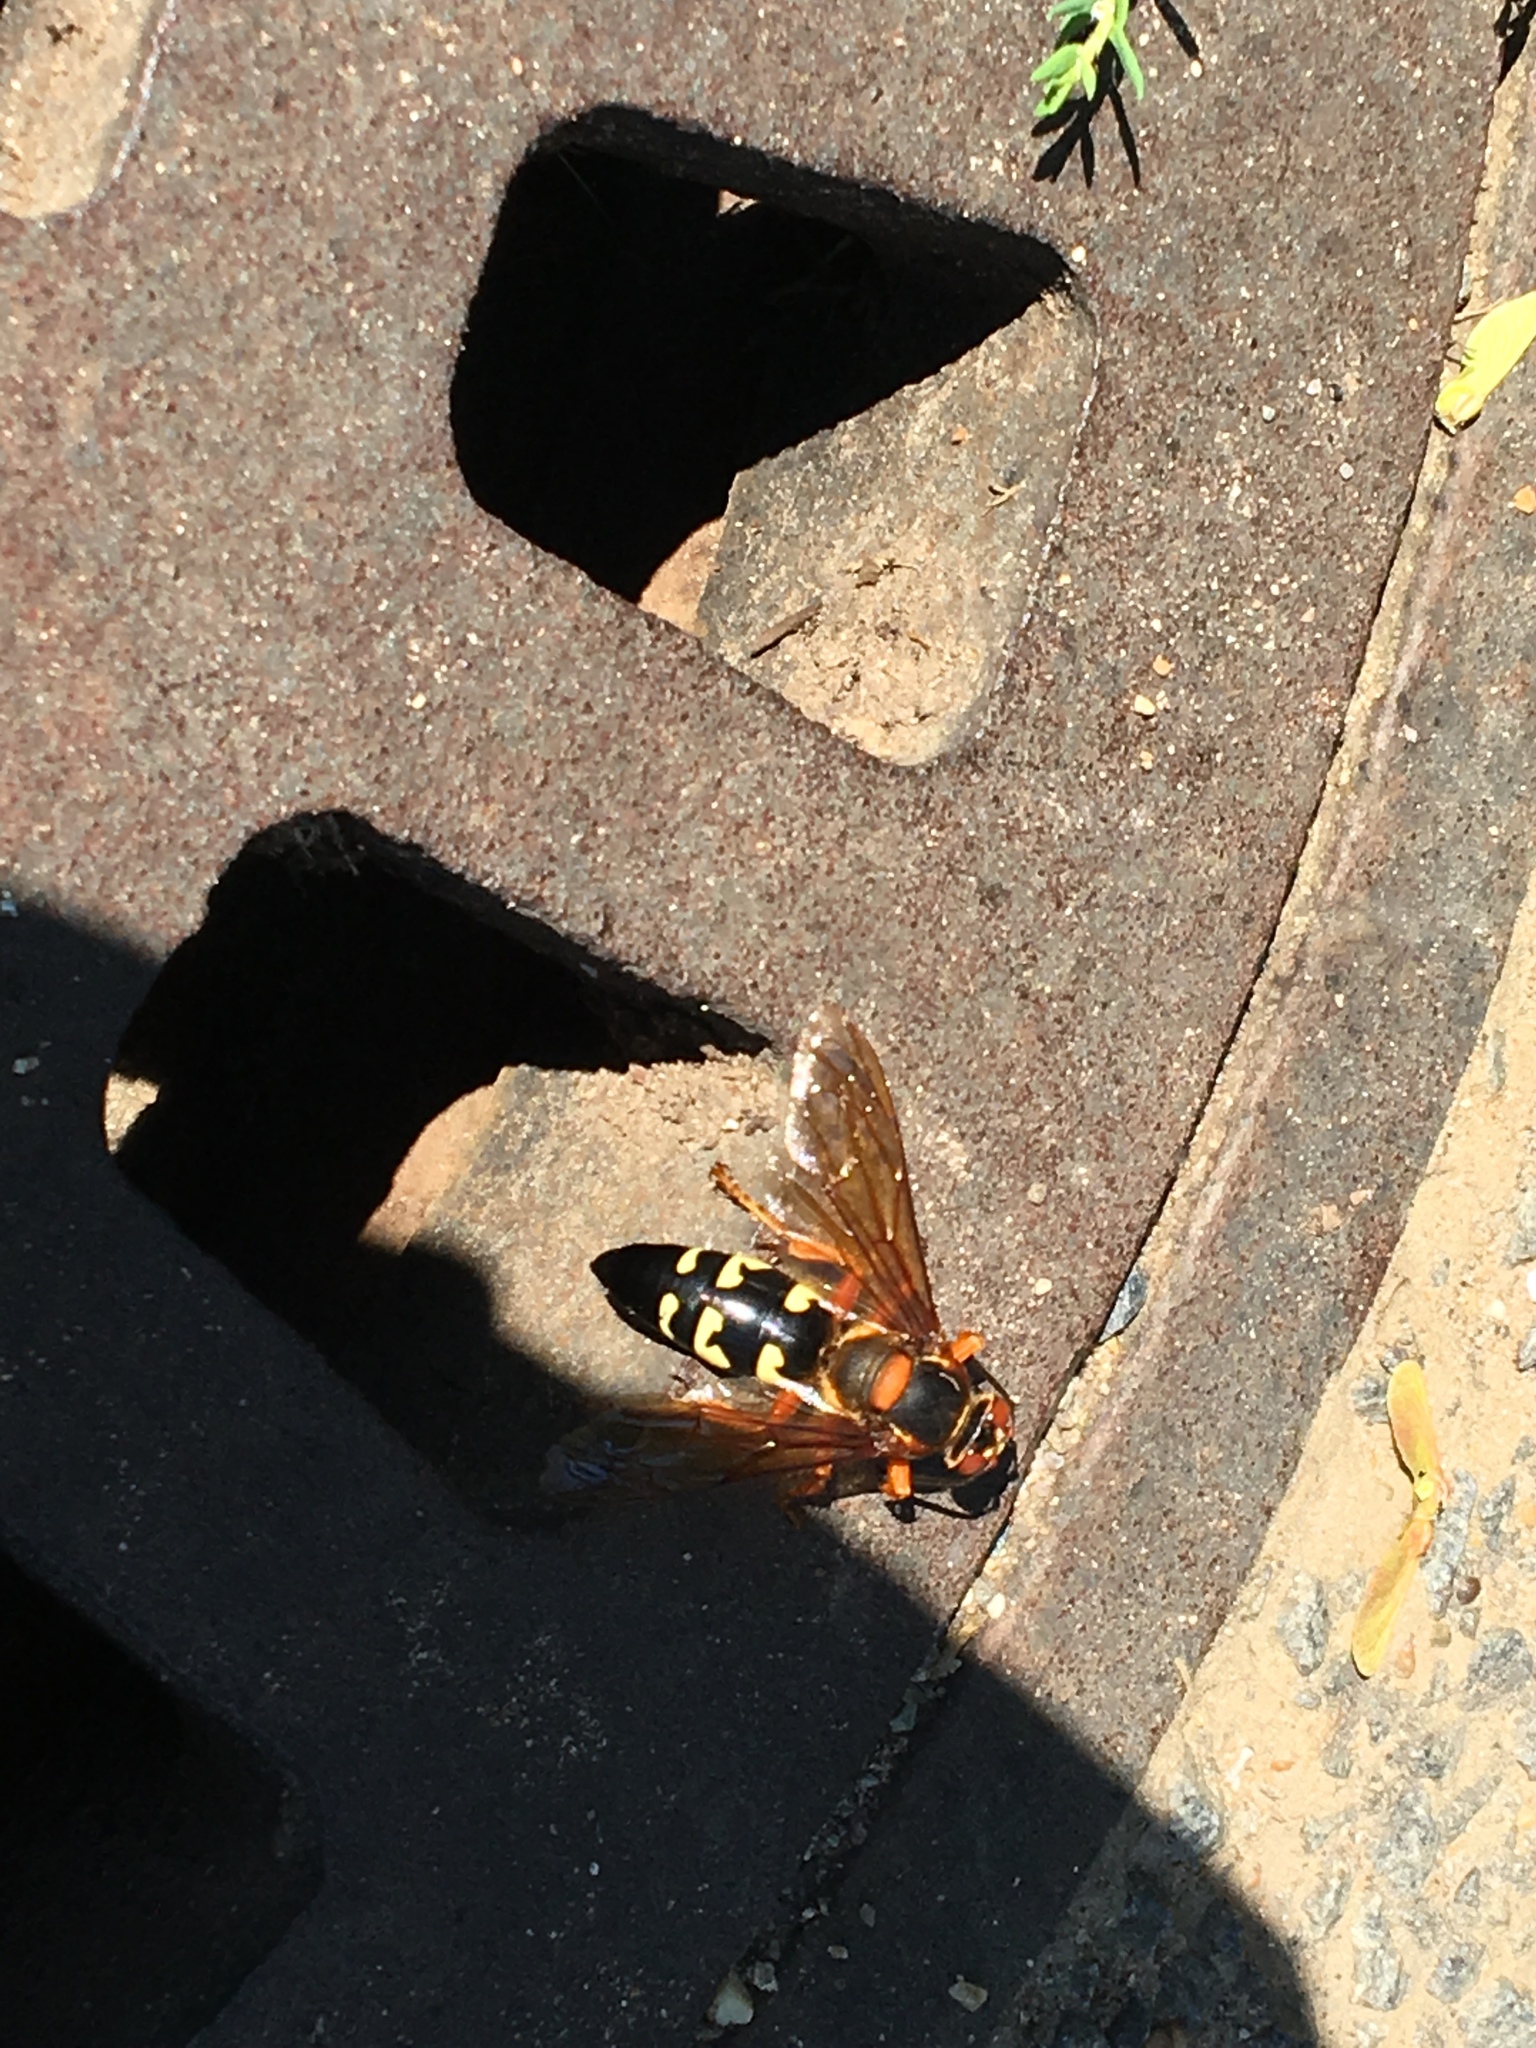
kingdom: Animalia
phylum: Arthropoda
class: Insecta
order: Hymenoptera
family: Crabronidae
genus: Sphecius
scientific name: Sphecius speciosus
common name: Cicada killer
